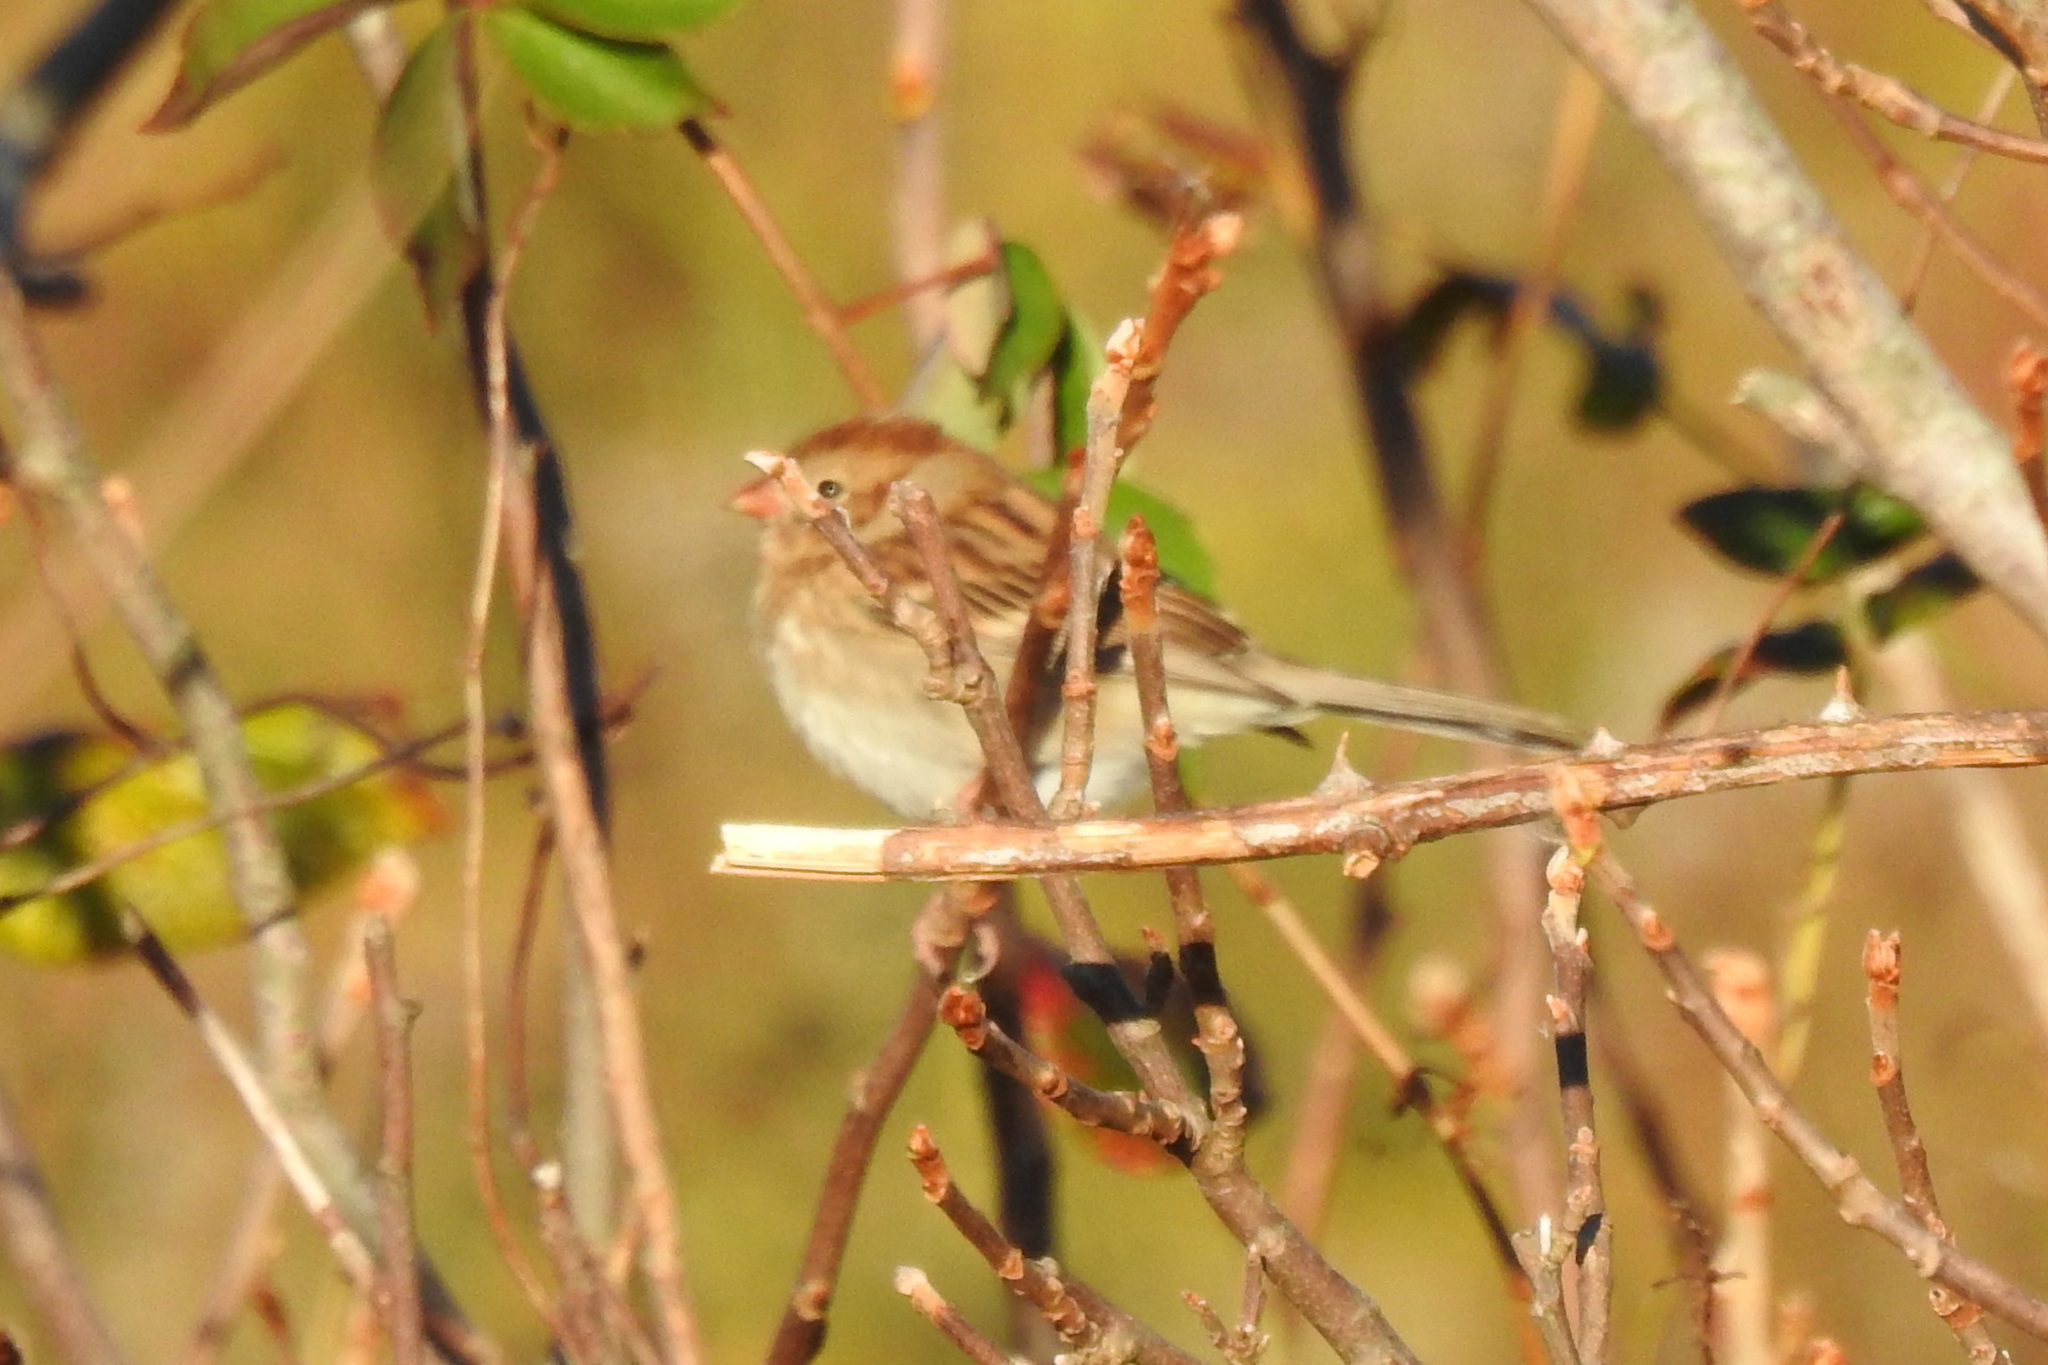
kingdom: Animalia
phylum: Chordata
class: Aves
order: Passeriformes
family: Passerellidae
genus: Spizella
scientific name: Spizella pusilla
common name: Field sparrow
